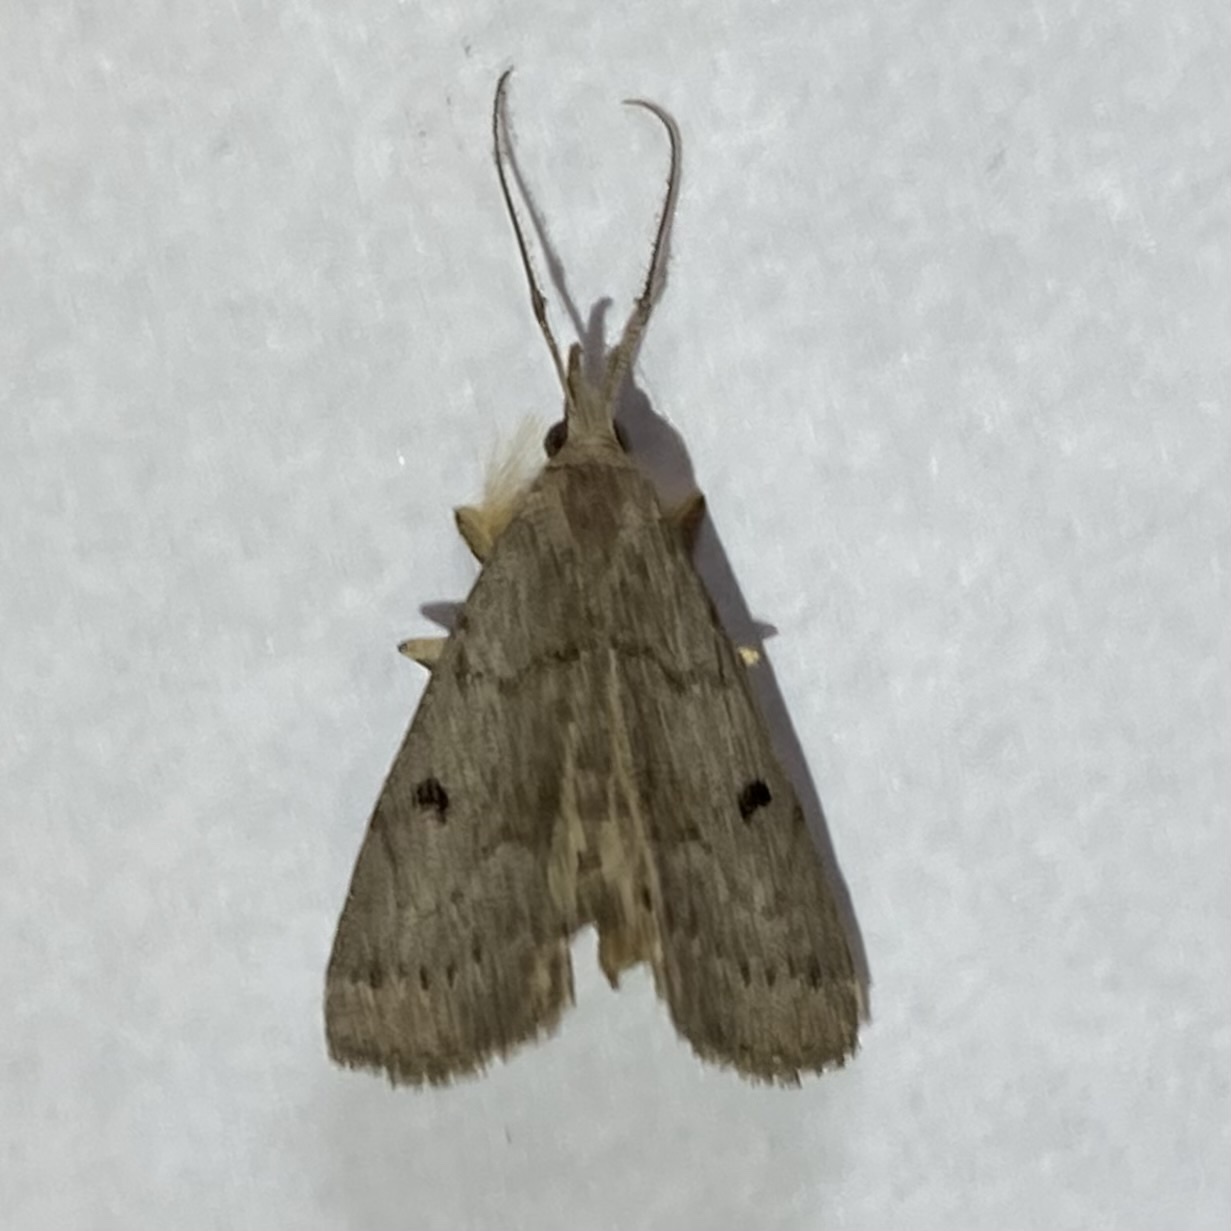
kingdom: Animalia
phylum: Arthropoda
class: Insecta
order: Lepidoptera
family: Erebidae
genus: Macrochilo
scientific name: Macrochilo morbidalis
